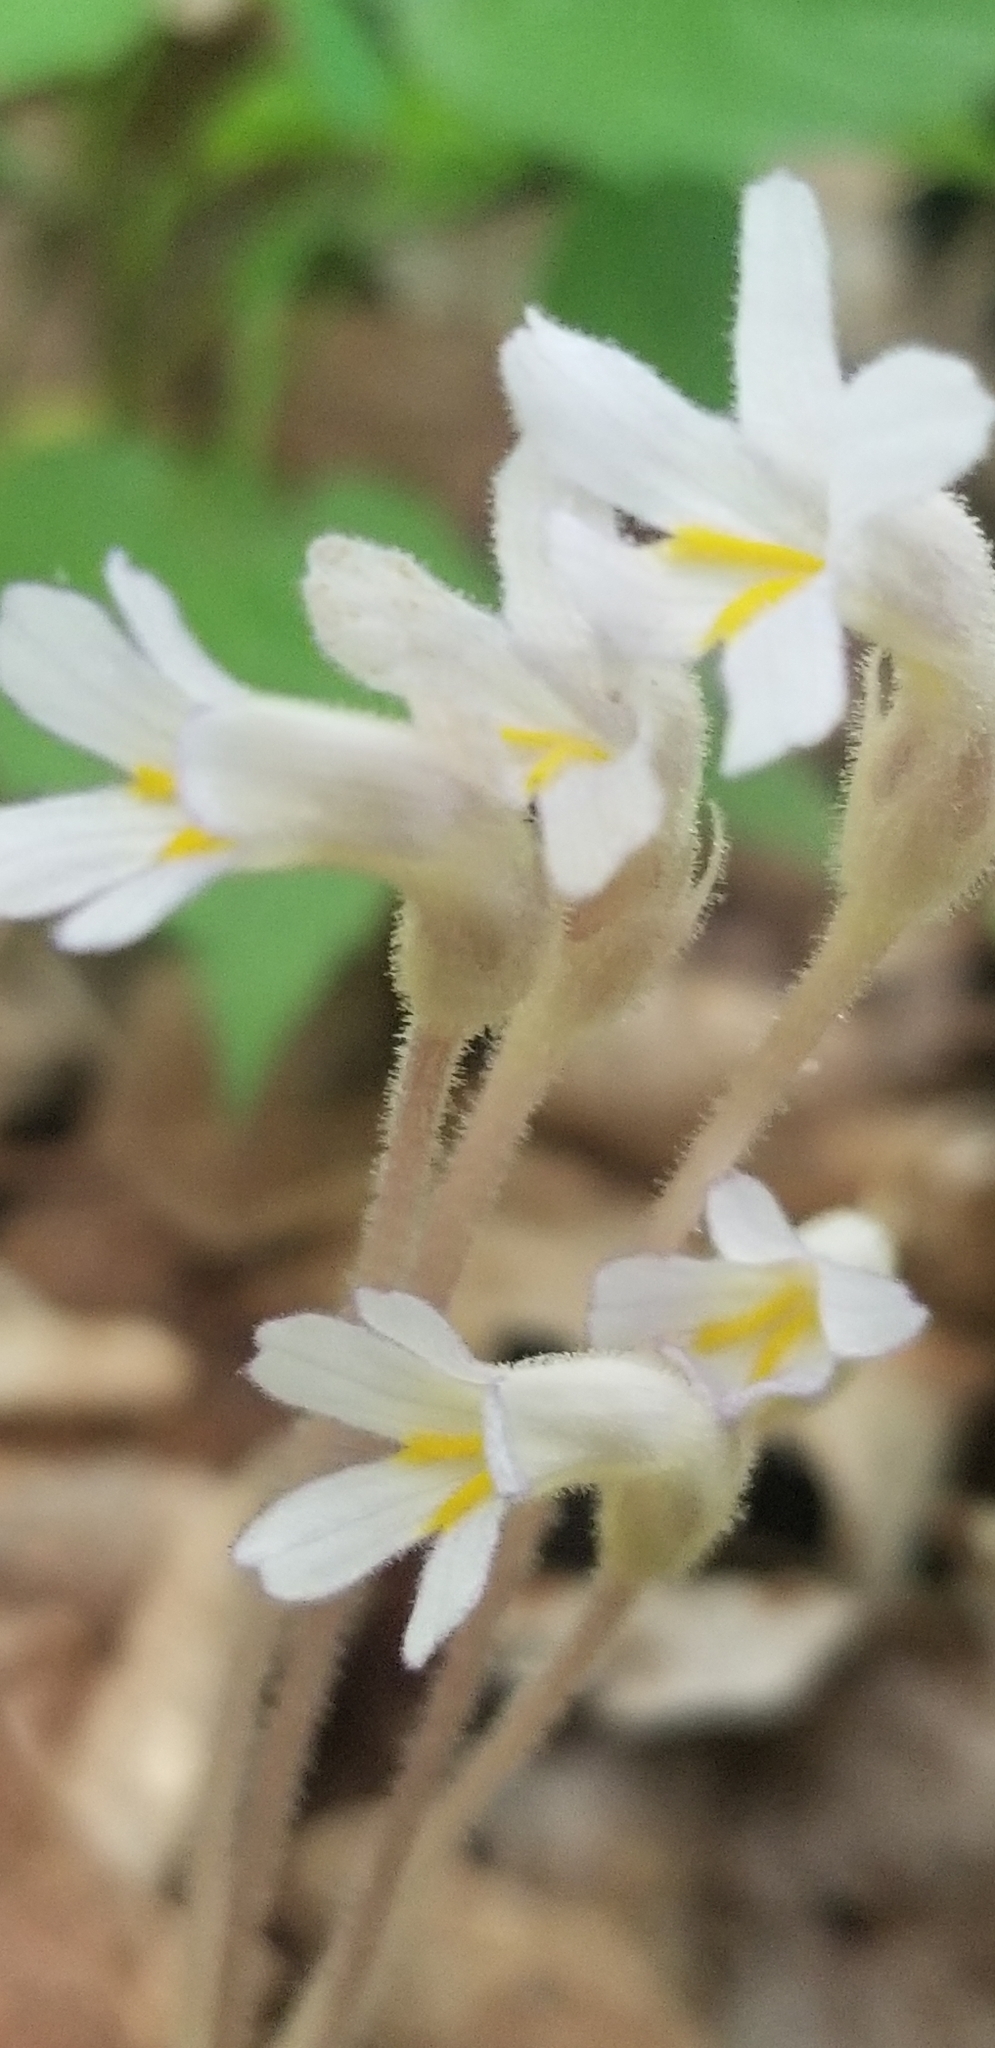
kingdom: Plantae
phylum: Tracheophyta
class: Magnoliopsida
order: Lamiales
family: Orobanchaceae
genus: Aphyllon
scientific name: Aphyllon uniflorum
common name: One-flowered broomrape
